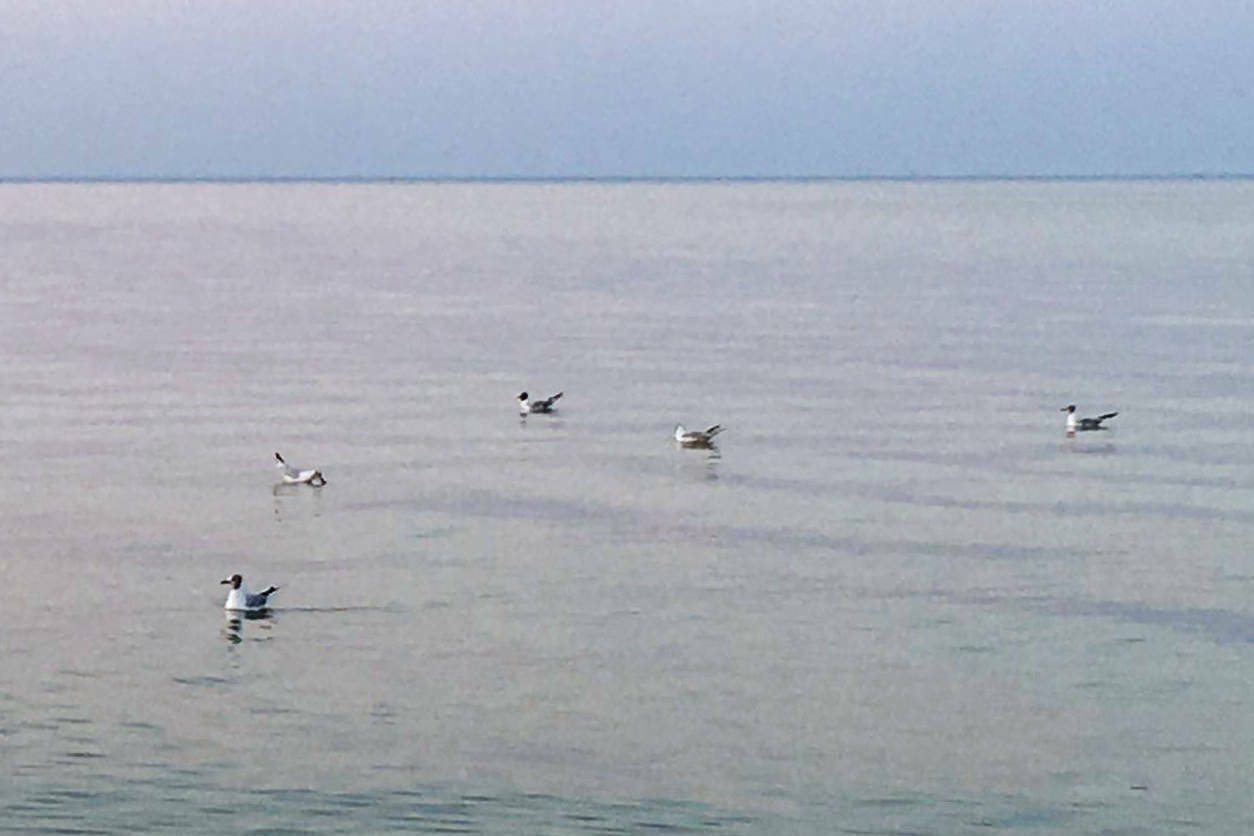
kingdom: Animalia
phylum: Chordata
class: Aves
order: Charadriiformes
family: Laridae
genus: Chroicocephalus
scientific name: Chroicocephalus ridibundus
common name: Black-headed gull
